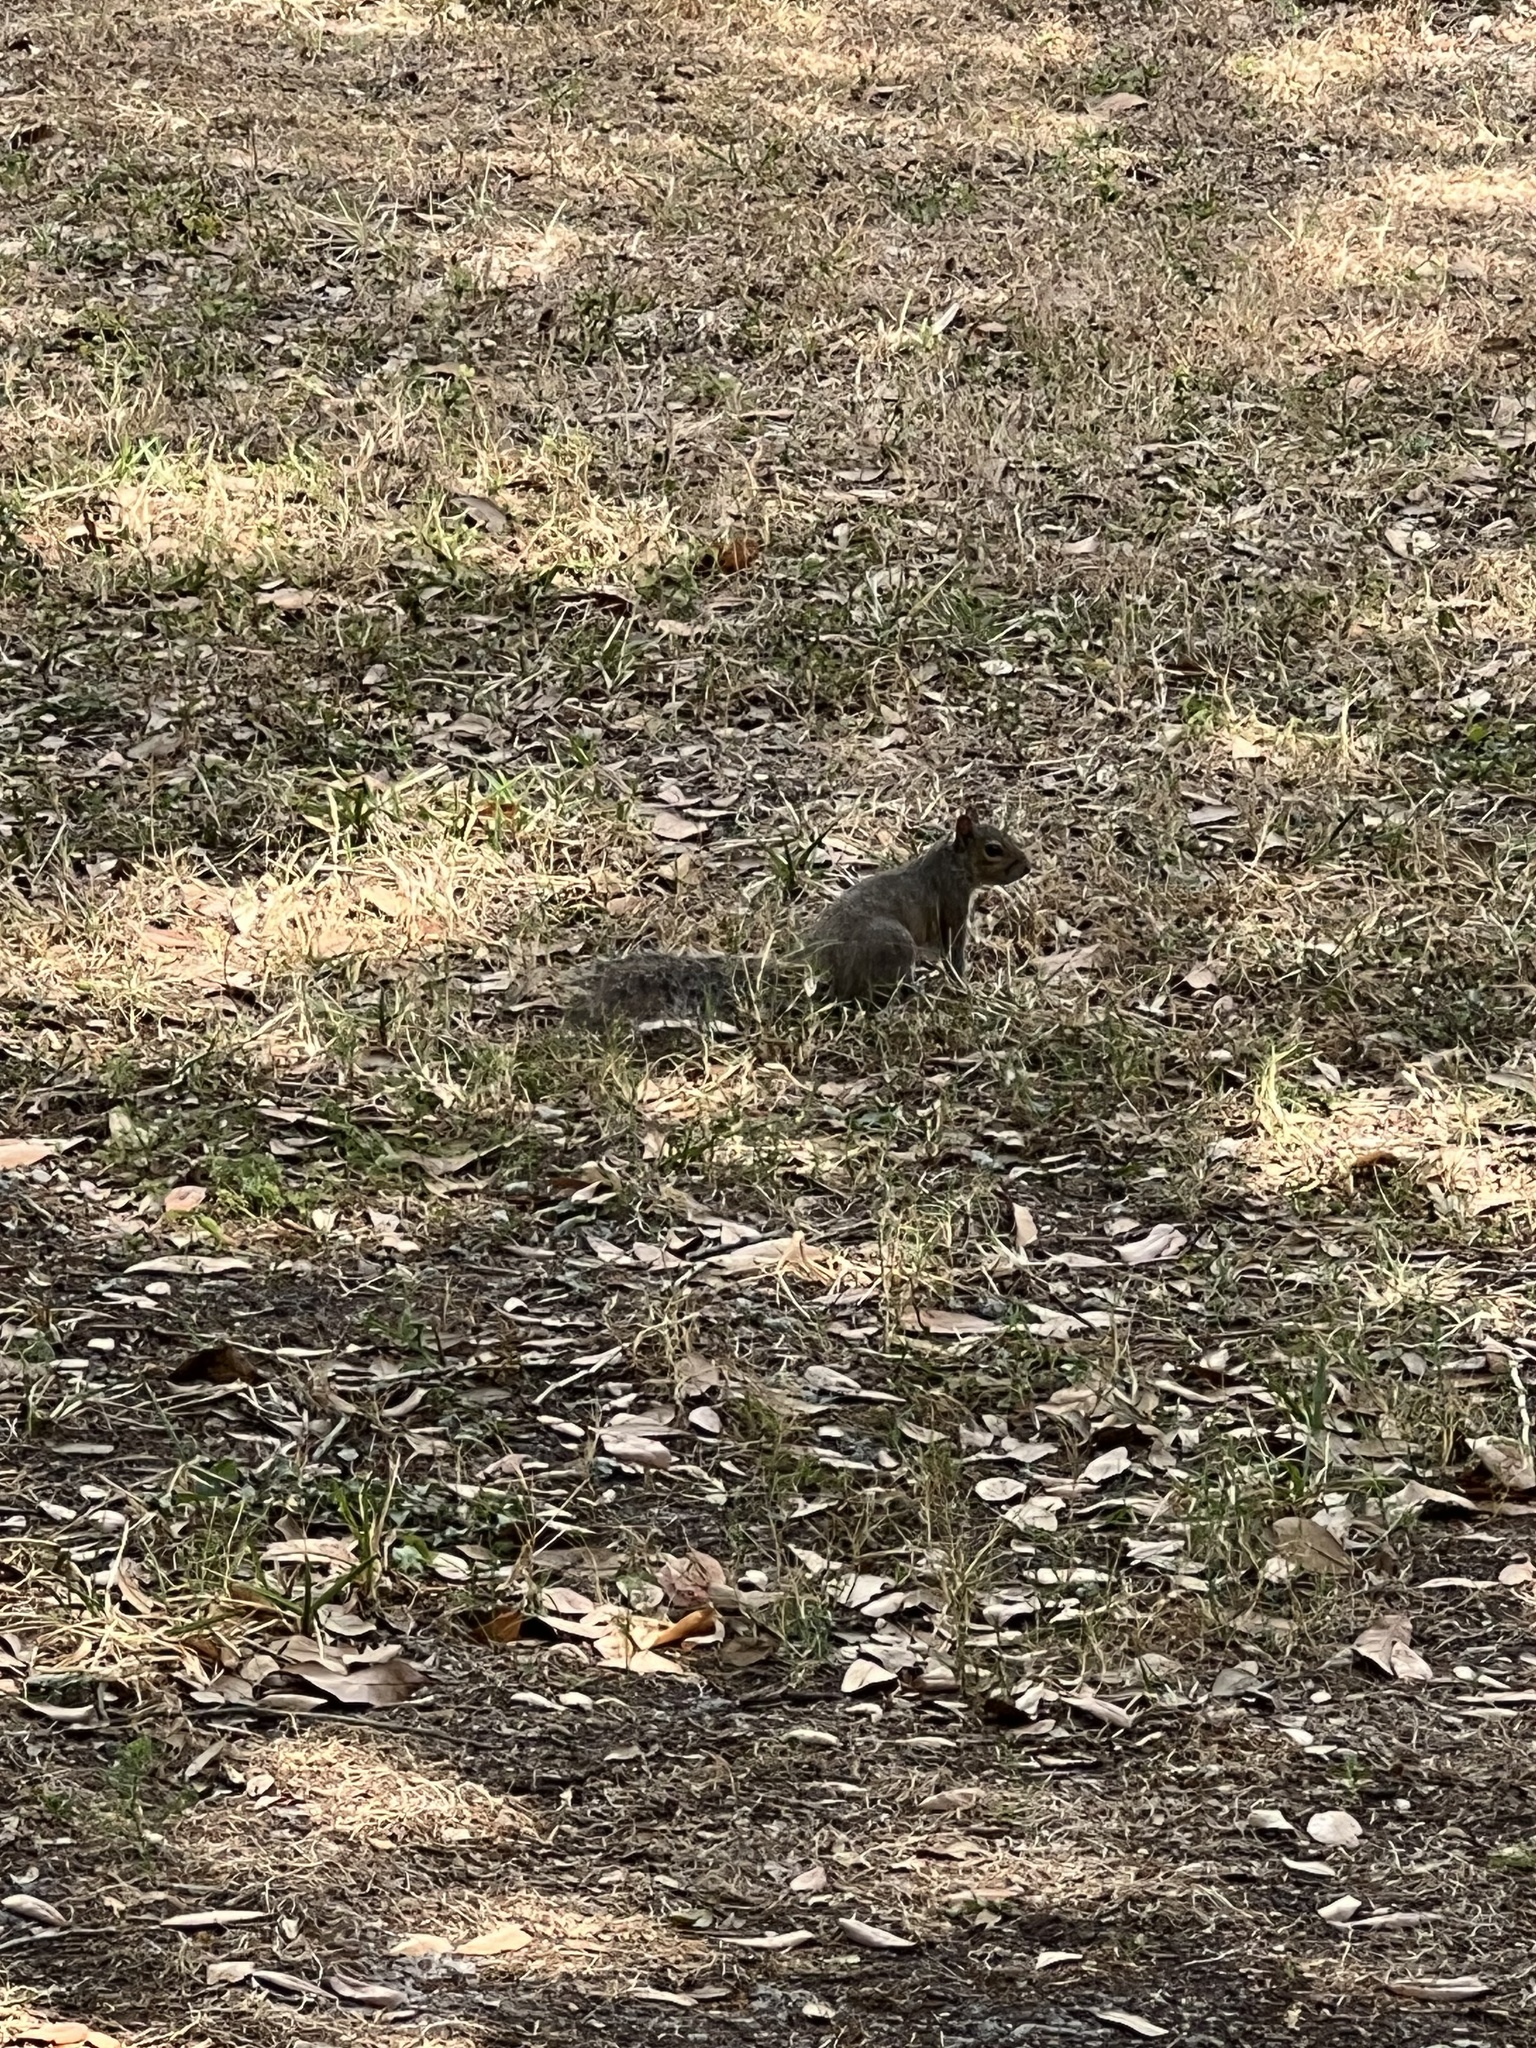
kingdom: Animalia
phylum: Chordata
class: Mammalia
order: Rodentia
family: Sciuridae
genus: Sciurus
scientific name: Sciurus carolinensis
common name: Eastern gray squirrel
